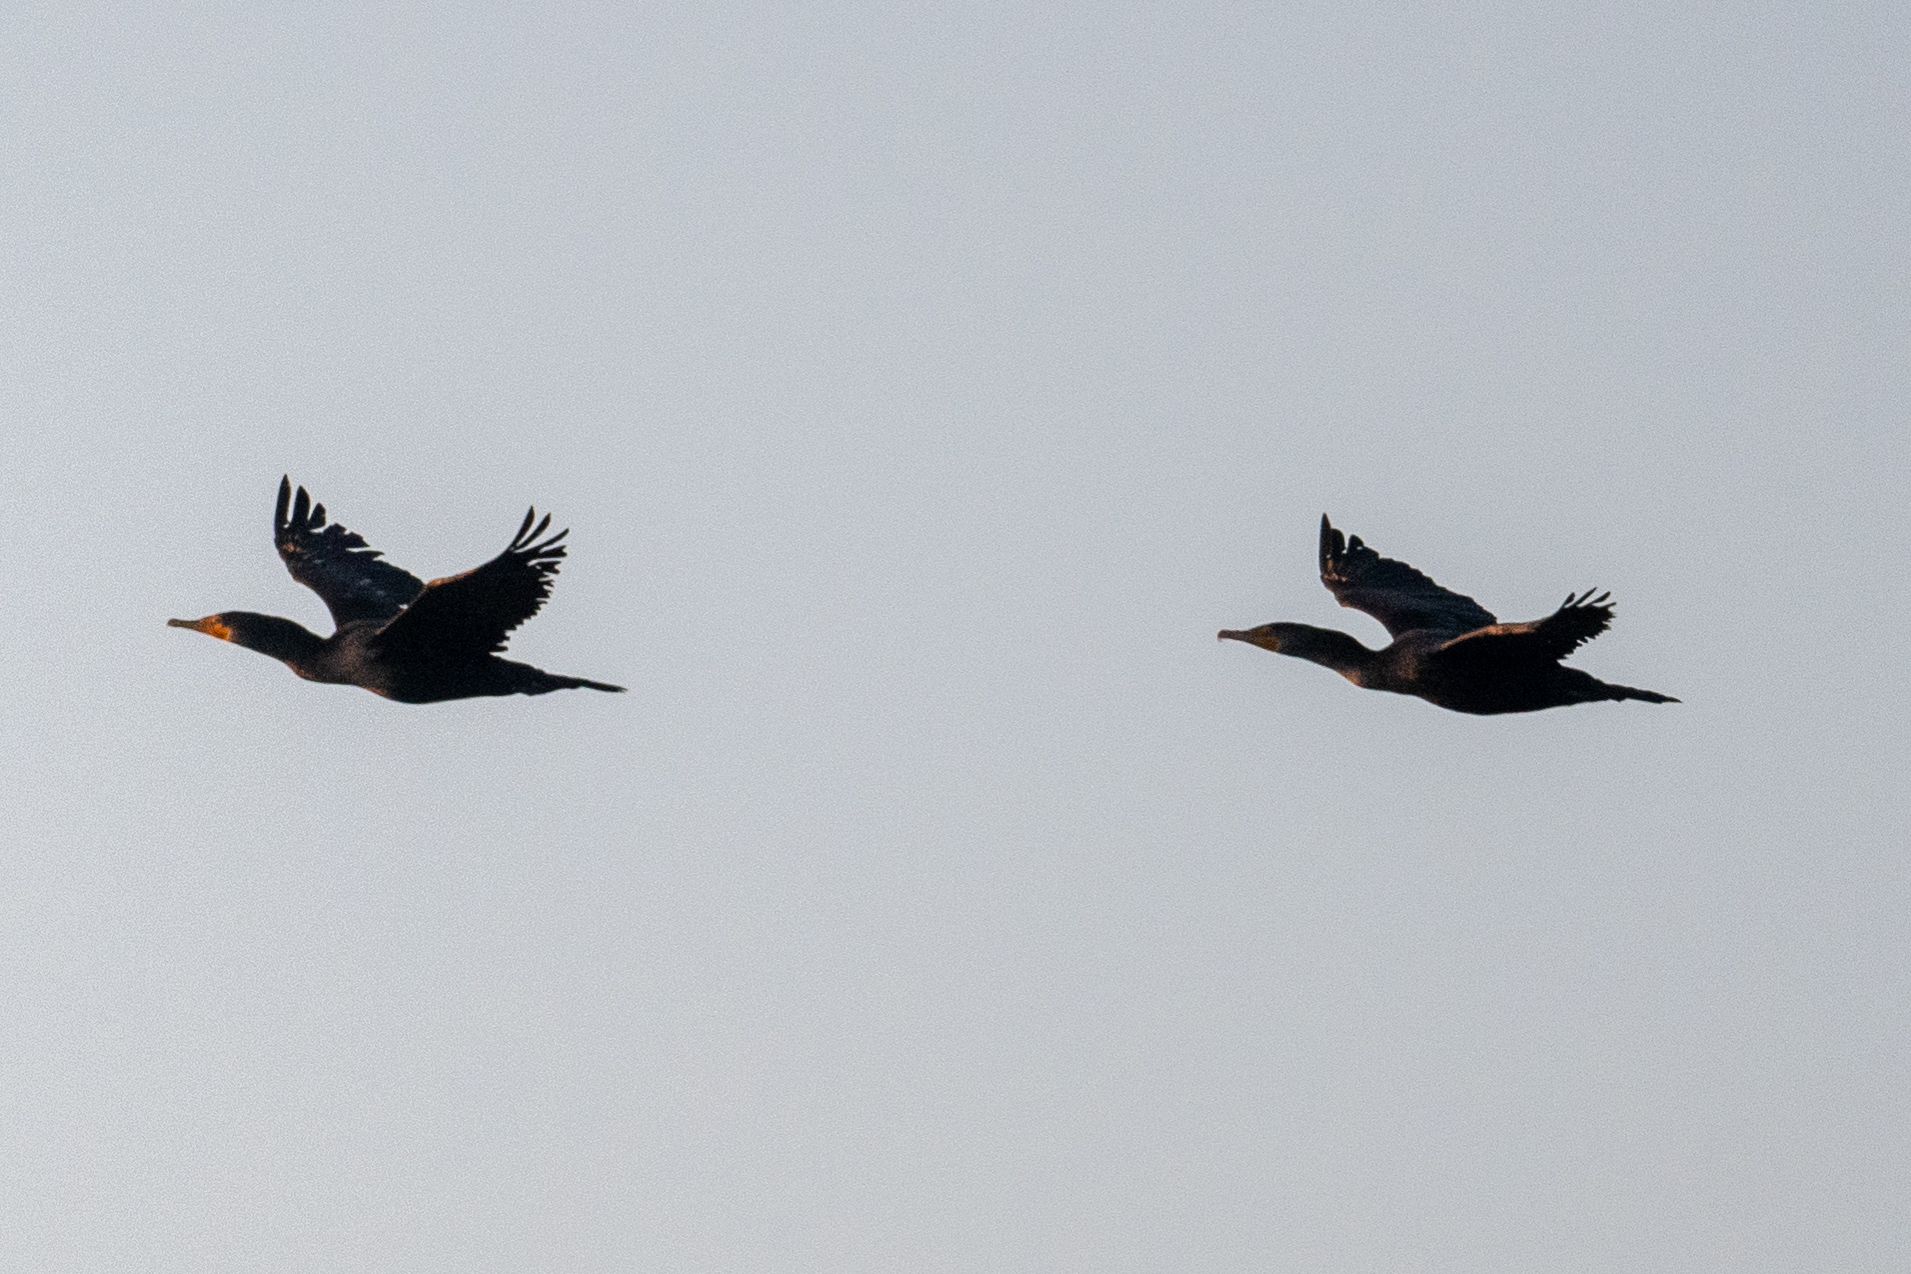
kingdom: Animalia
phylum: Chordata
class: Aves
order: Suliformes
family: Phalacrocoracidae
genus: Phalacrocorax
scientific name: Phalacrocorax auritus
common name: Double-crested cormorant
